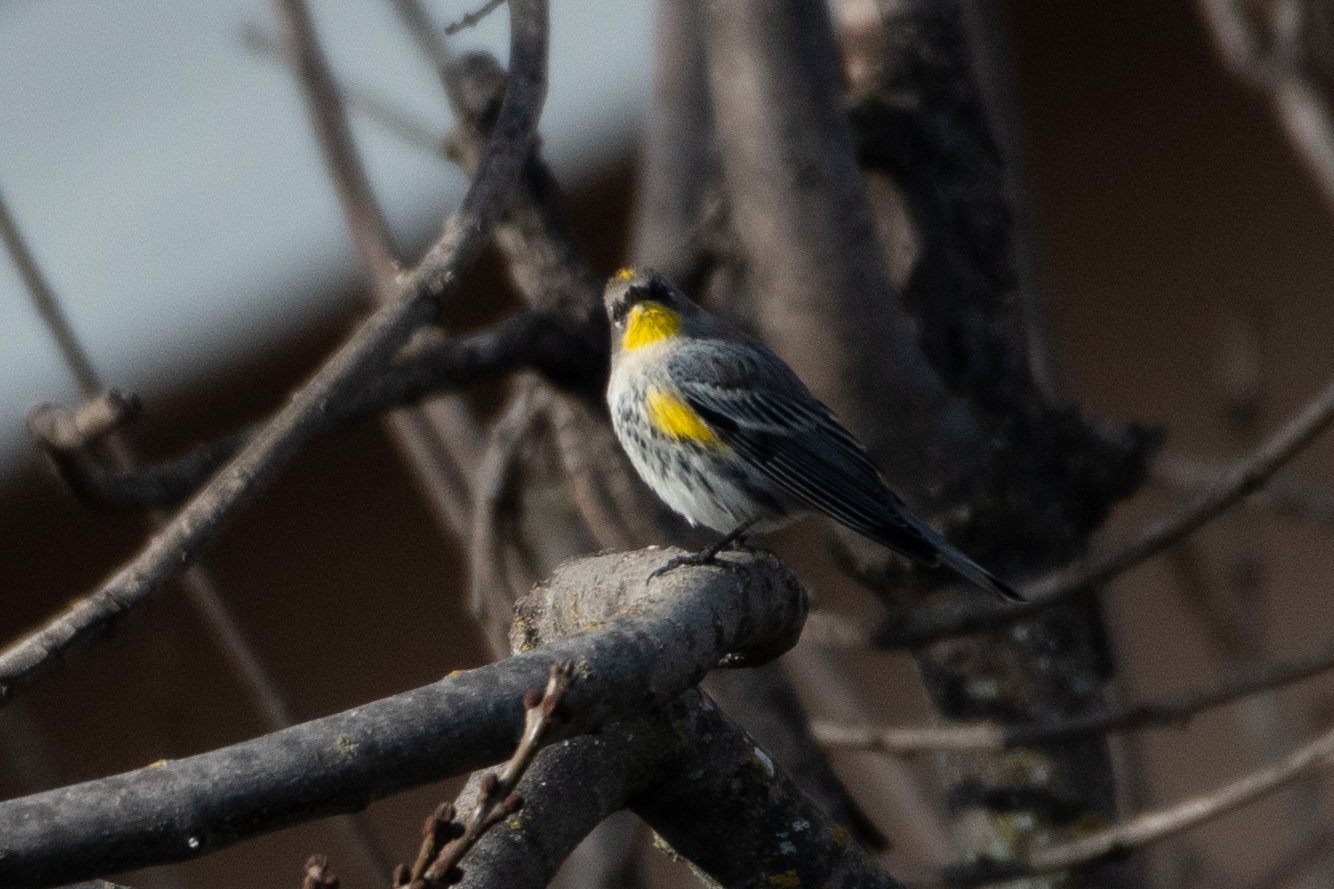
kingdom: Animalia
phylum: Chordata
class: Aves
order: Passeriformes
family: Parulidae
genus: Setophaga
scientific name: Setophaga coronata
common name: Myrtle warbler
